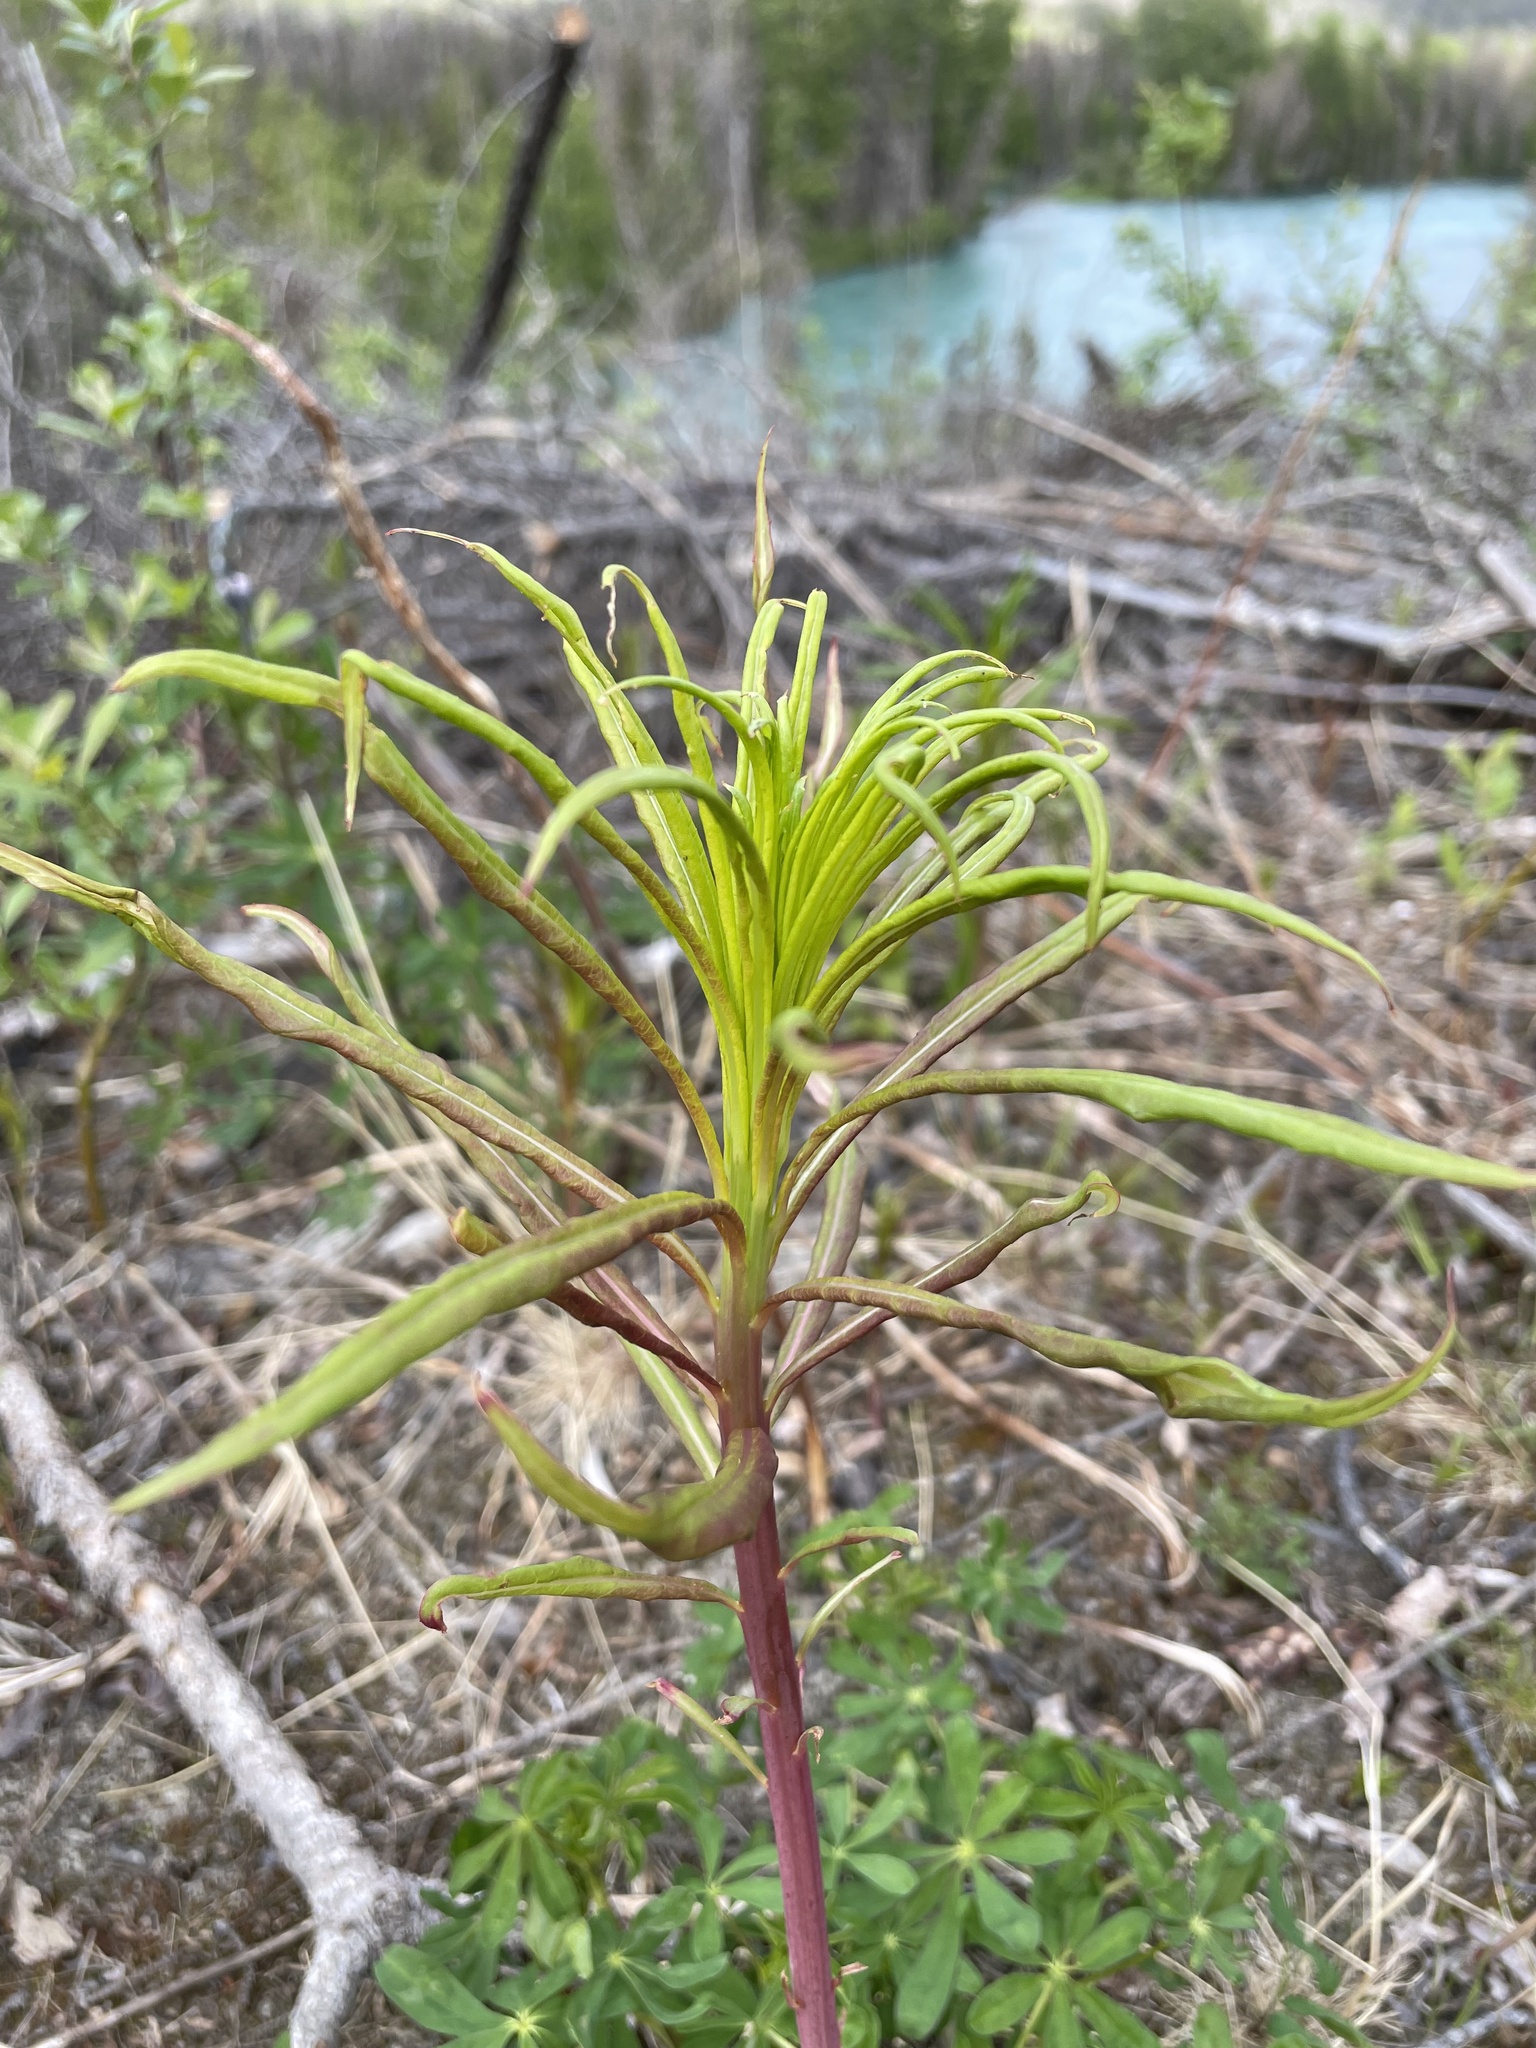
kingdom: Plantae
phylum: Tracheophyta
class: Magnoliopsida
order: Myrtales
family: Onagraceae
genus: Chamaenerion
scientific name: Chamaenerion angustifolium
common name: Fireweed
